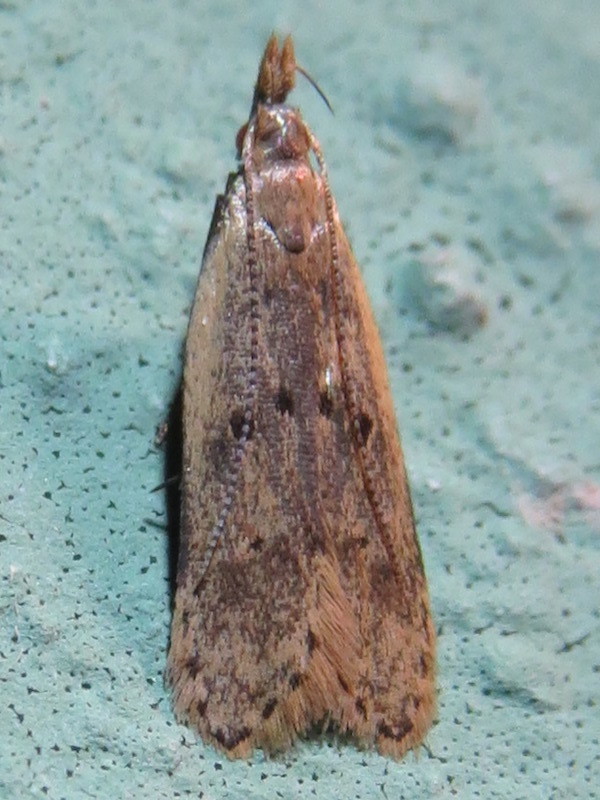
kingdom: Animalia
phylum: Arthropoda
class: Insecta
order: Lepidoptera
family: Gelechiidae
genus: Dichomeris
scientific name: Dichomeris punctipennella
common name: Many-spotted dichomeris moth
